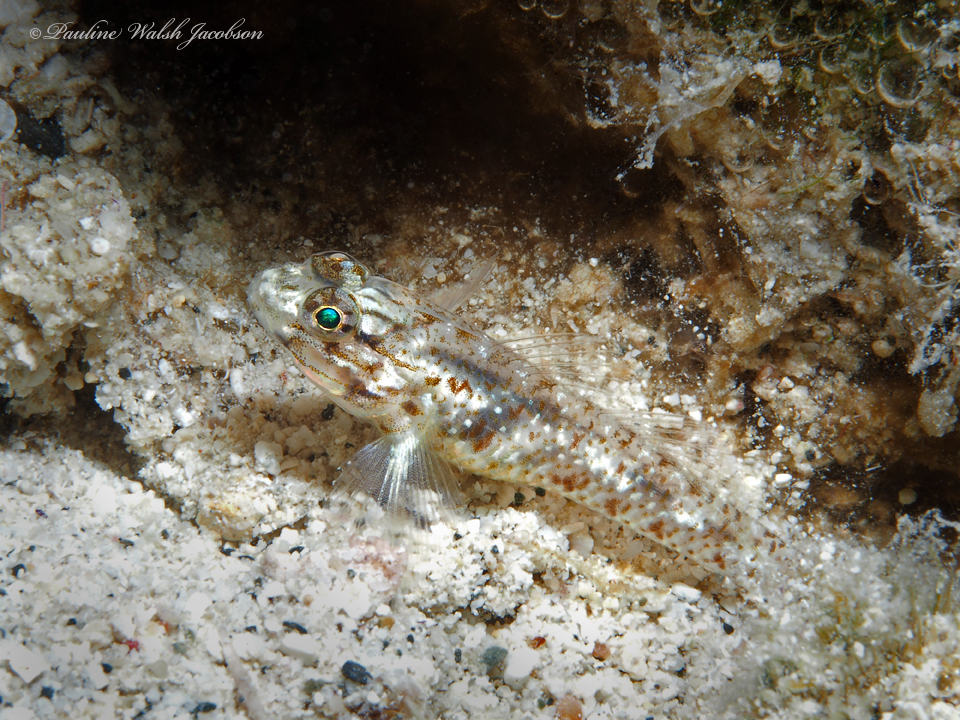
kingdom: Animalia
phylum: Chordata
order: Perciformes
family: Gobiidae
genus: Coryphopterus
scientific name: Coryphopterus dicrus
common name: Colon goby
